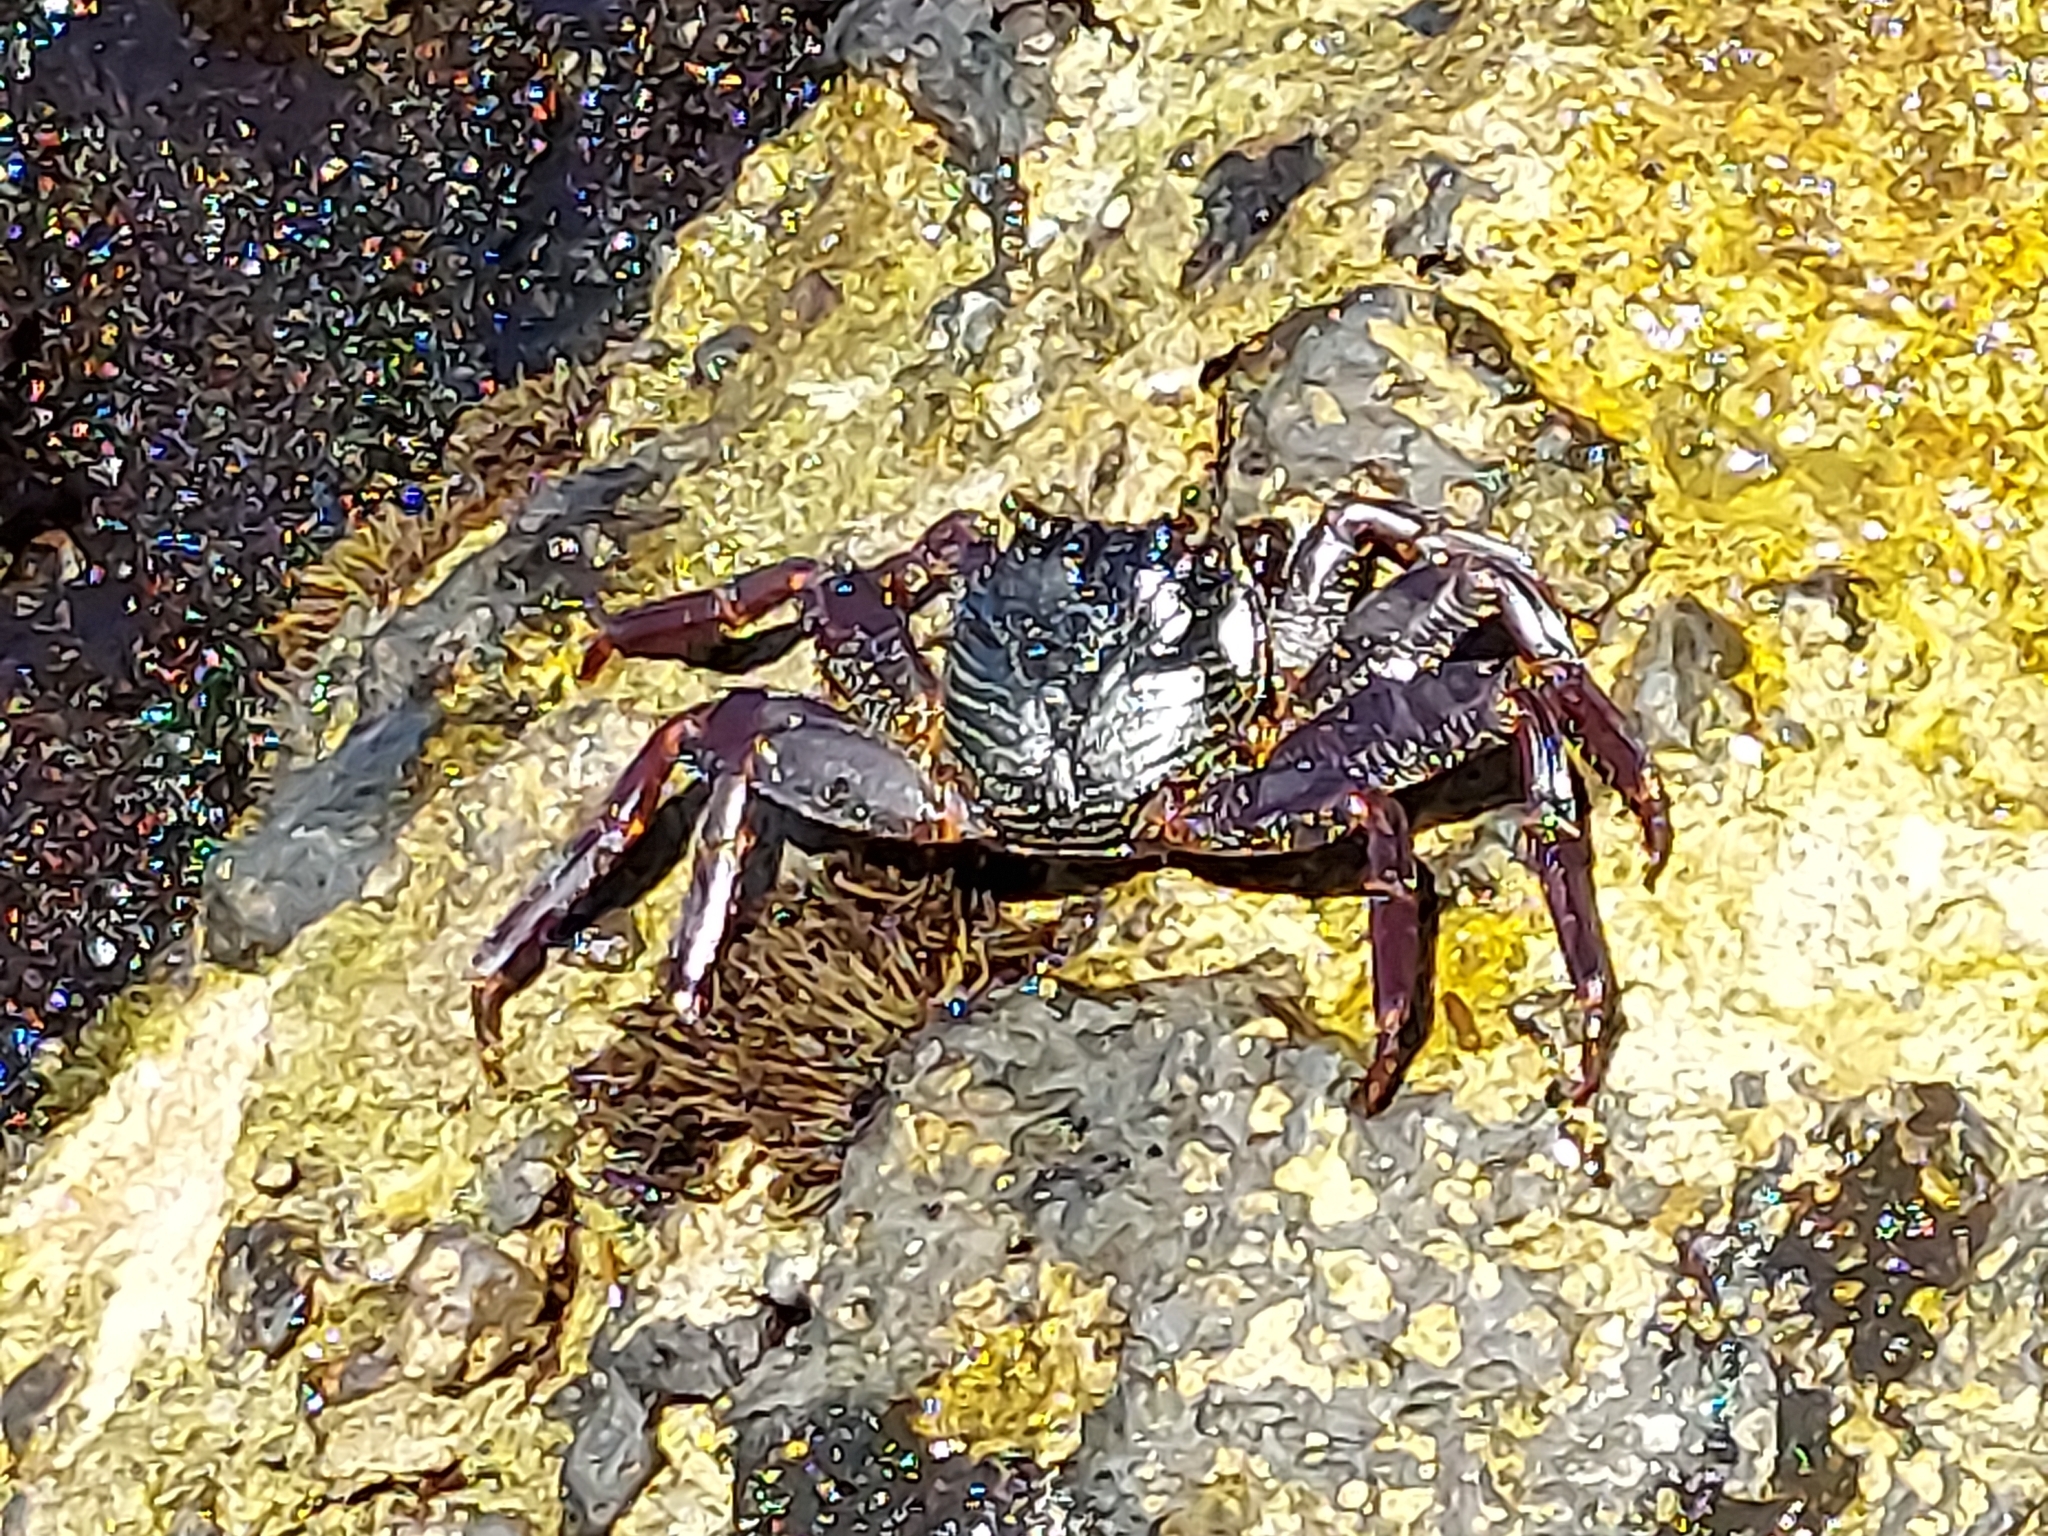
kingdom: Animalia
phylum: Arthropoda
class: Malacostraca
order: Decapoda
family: Grapsidae
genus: Grapsus
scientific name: Grapsus tenuicrustatus
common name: Natal lightfoot crab
